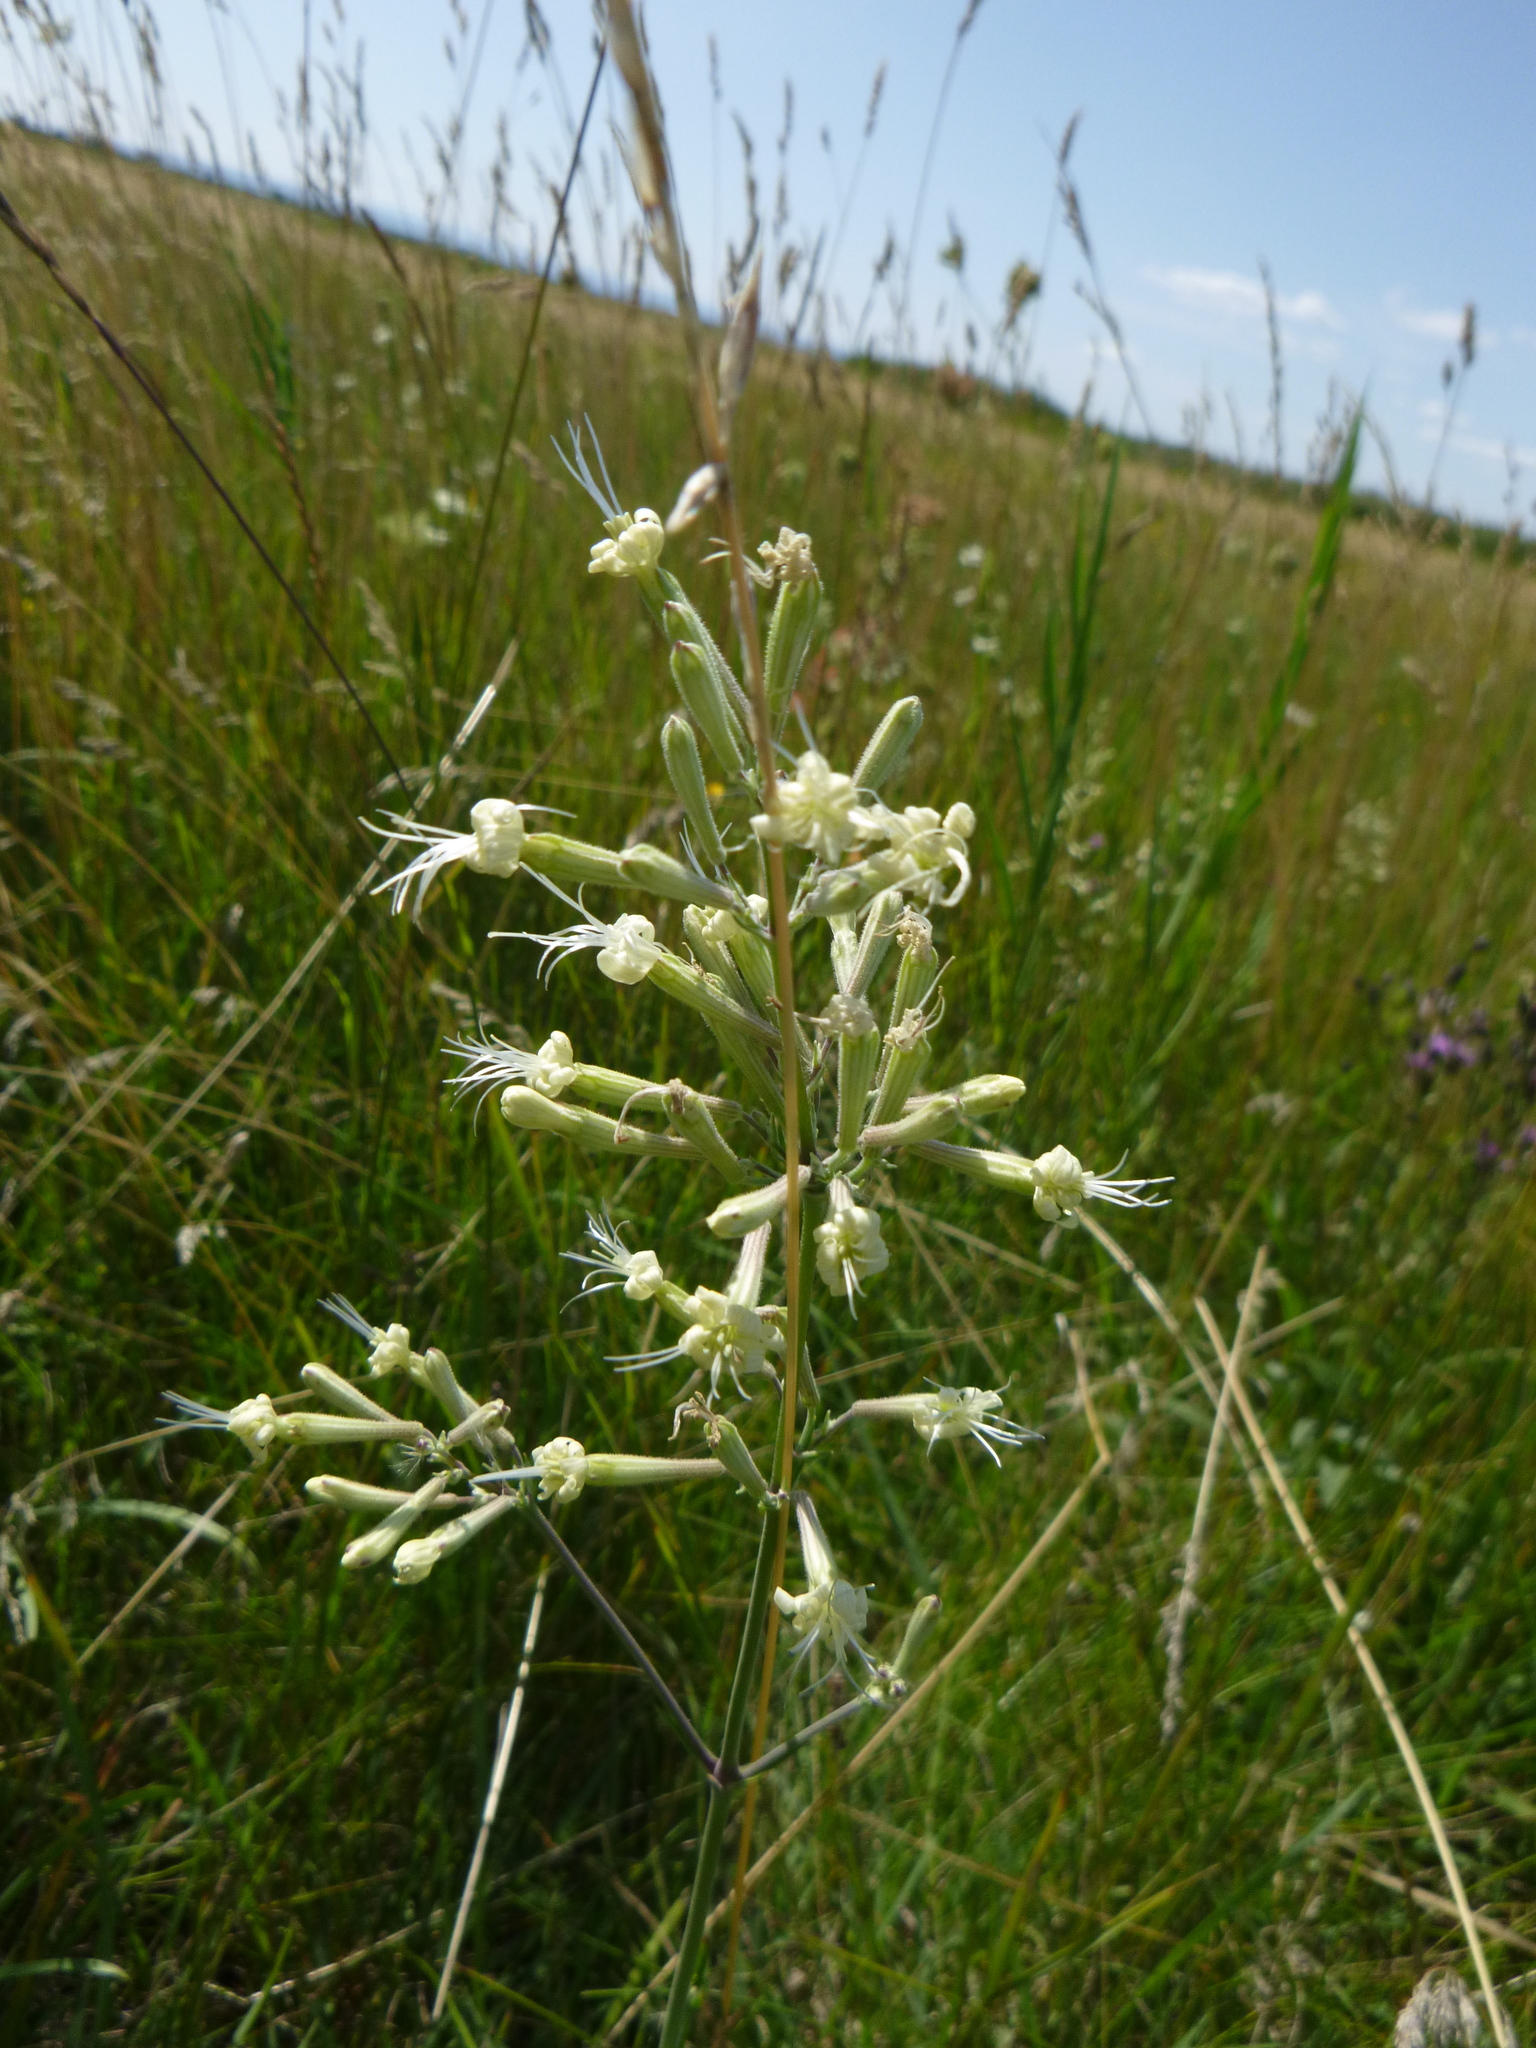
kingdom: Plantae
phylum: Tracheophyta
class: Magnoliopsida
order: Caryophyllales
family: Caryophyllaceae
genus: Silene
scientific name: Silene multiflora
